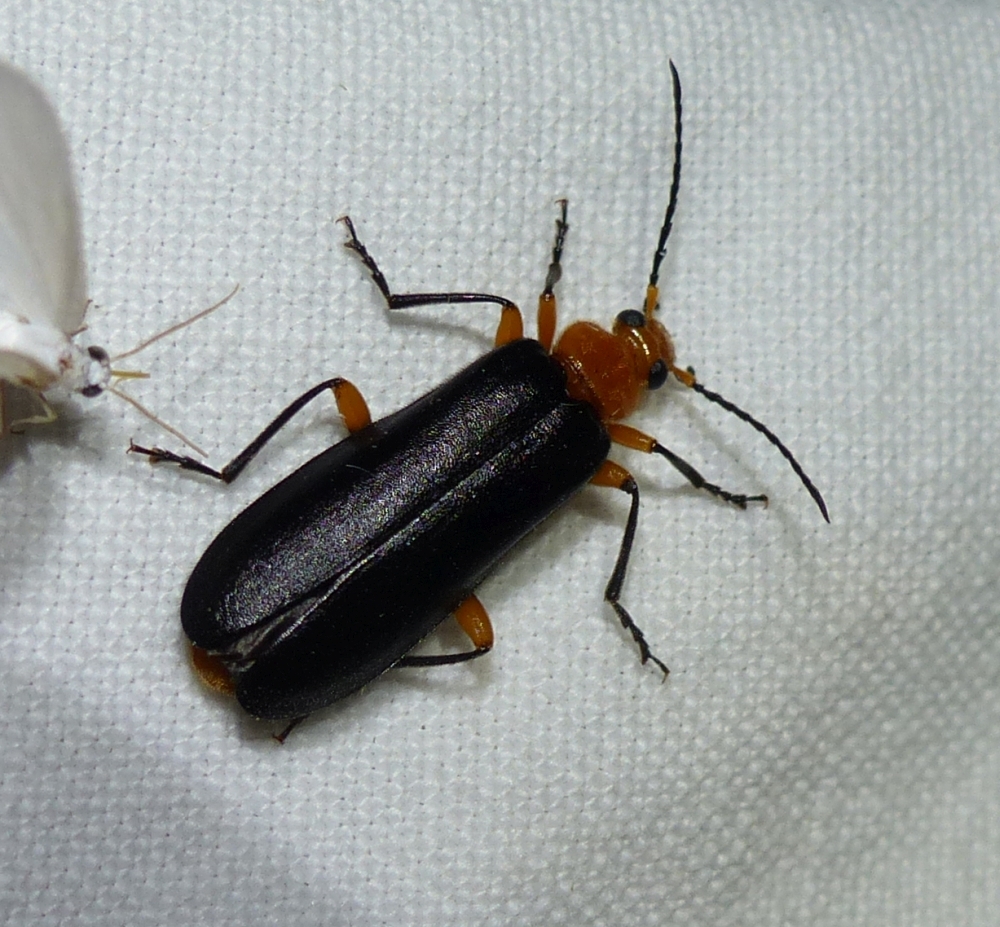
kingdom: Animalia
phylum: Arthropoda
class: Insecta
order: Coleoptera
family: Pyrochroidae
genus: Neopyrochroa
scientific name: Neopyrochroa femoralis
